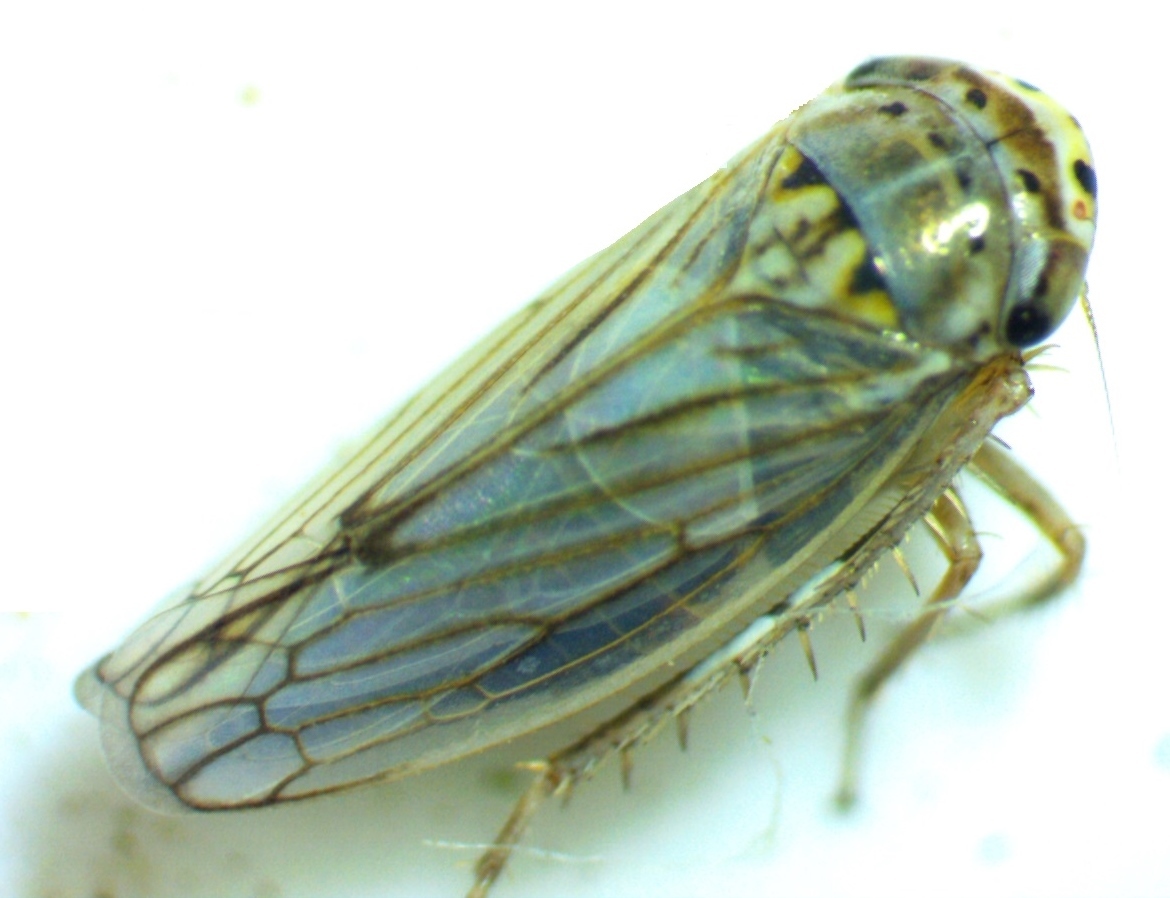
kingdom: Animalia
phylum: Arthropoda
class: Insecta
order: Hemiptera
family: Cicadellidae
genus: Exitianus
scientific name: Exitianus exitiosus
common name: Gray lawn leafhopper
